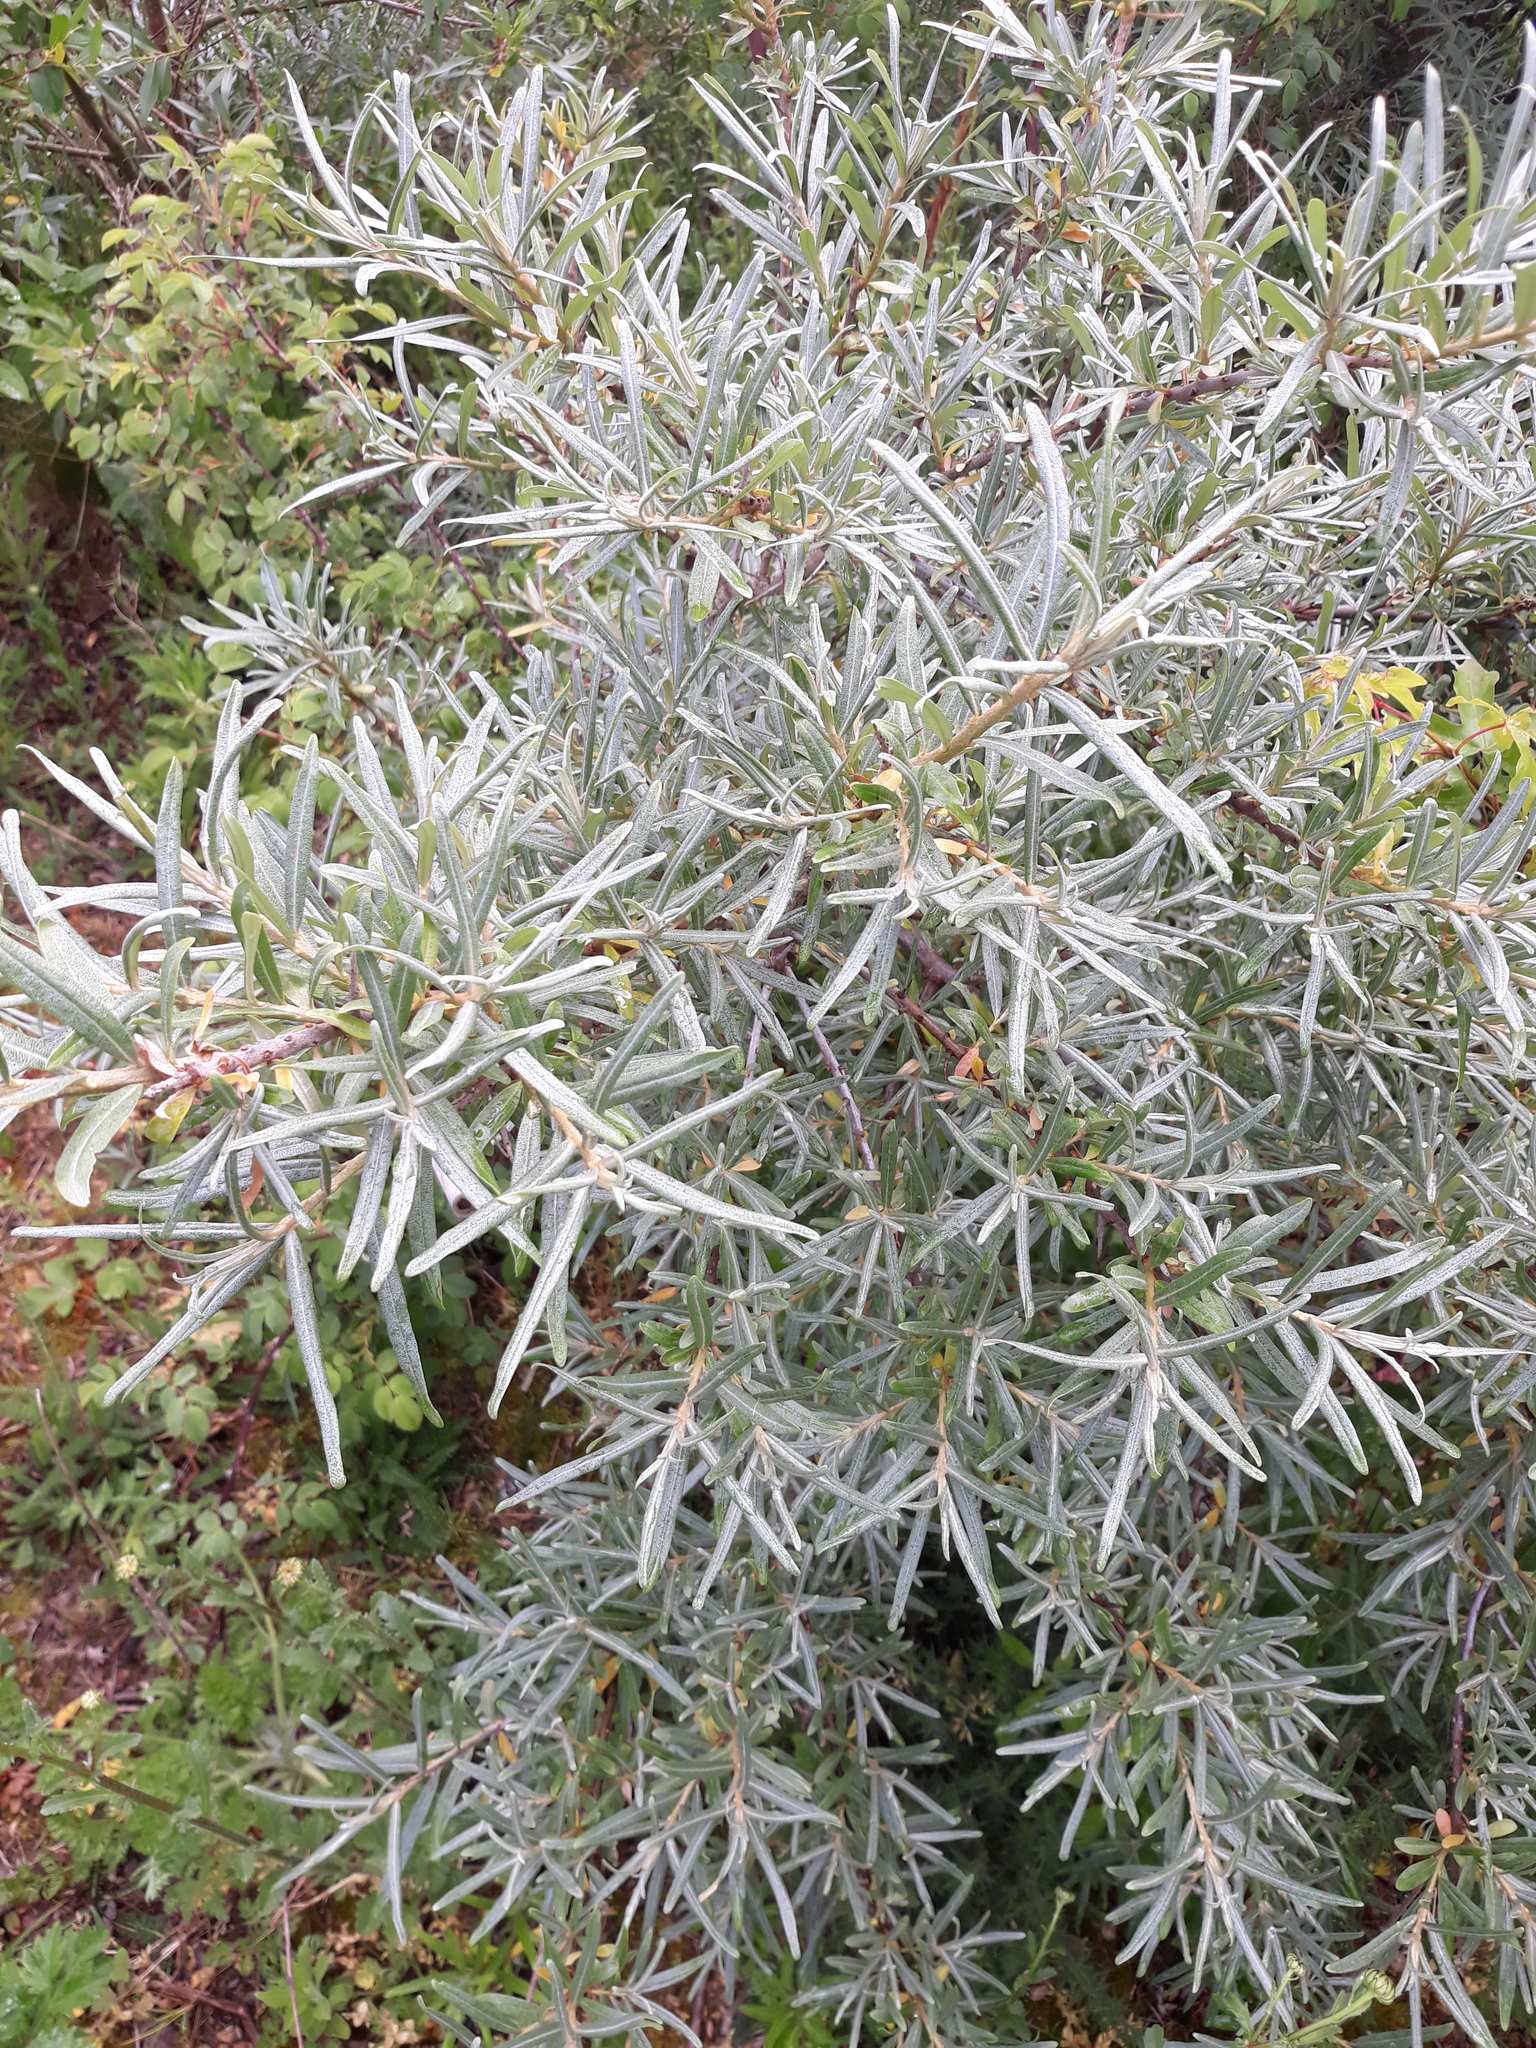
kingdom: Plantae
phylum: Tracheophyta
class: Magnoliopsida
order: Rosales
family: Elaeagnaceae
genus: Hippophae
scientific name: Hippophae rhamnoides
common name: Sea-buckthorn
